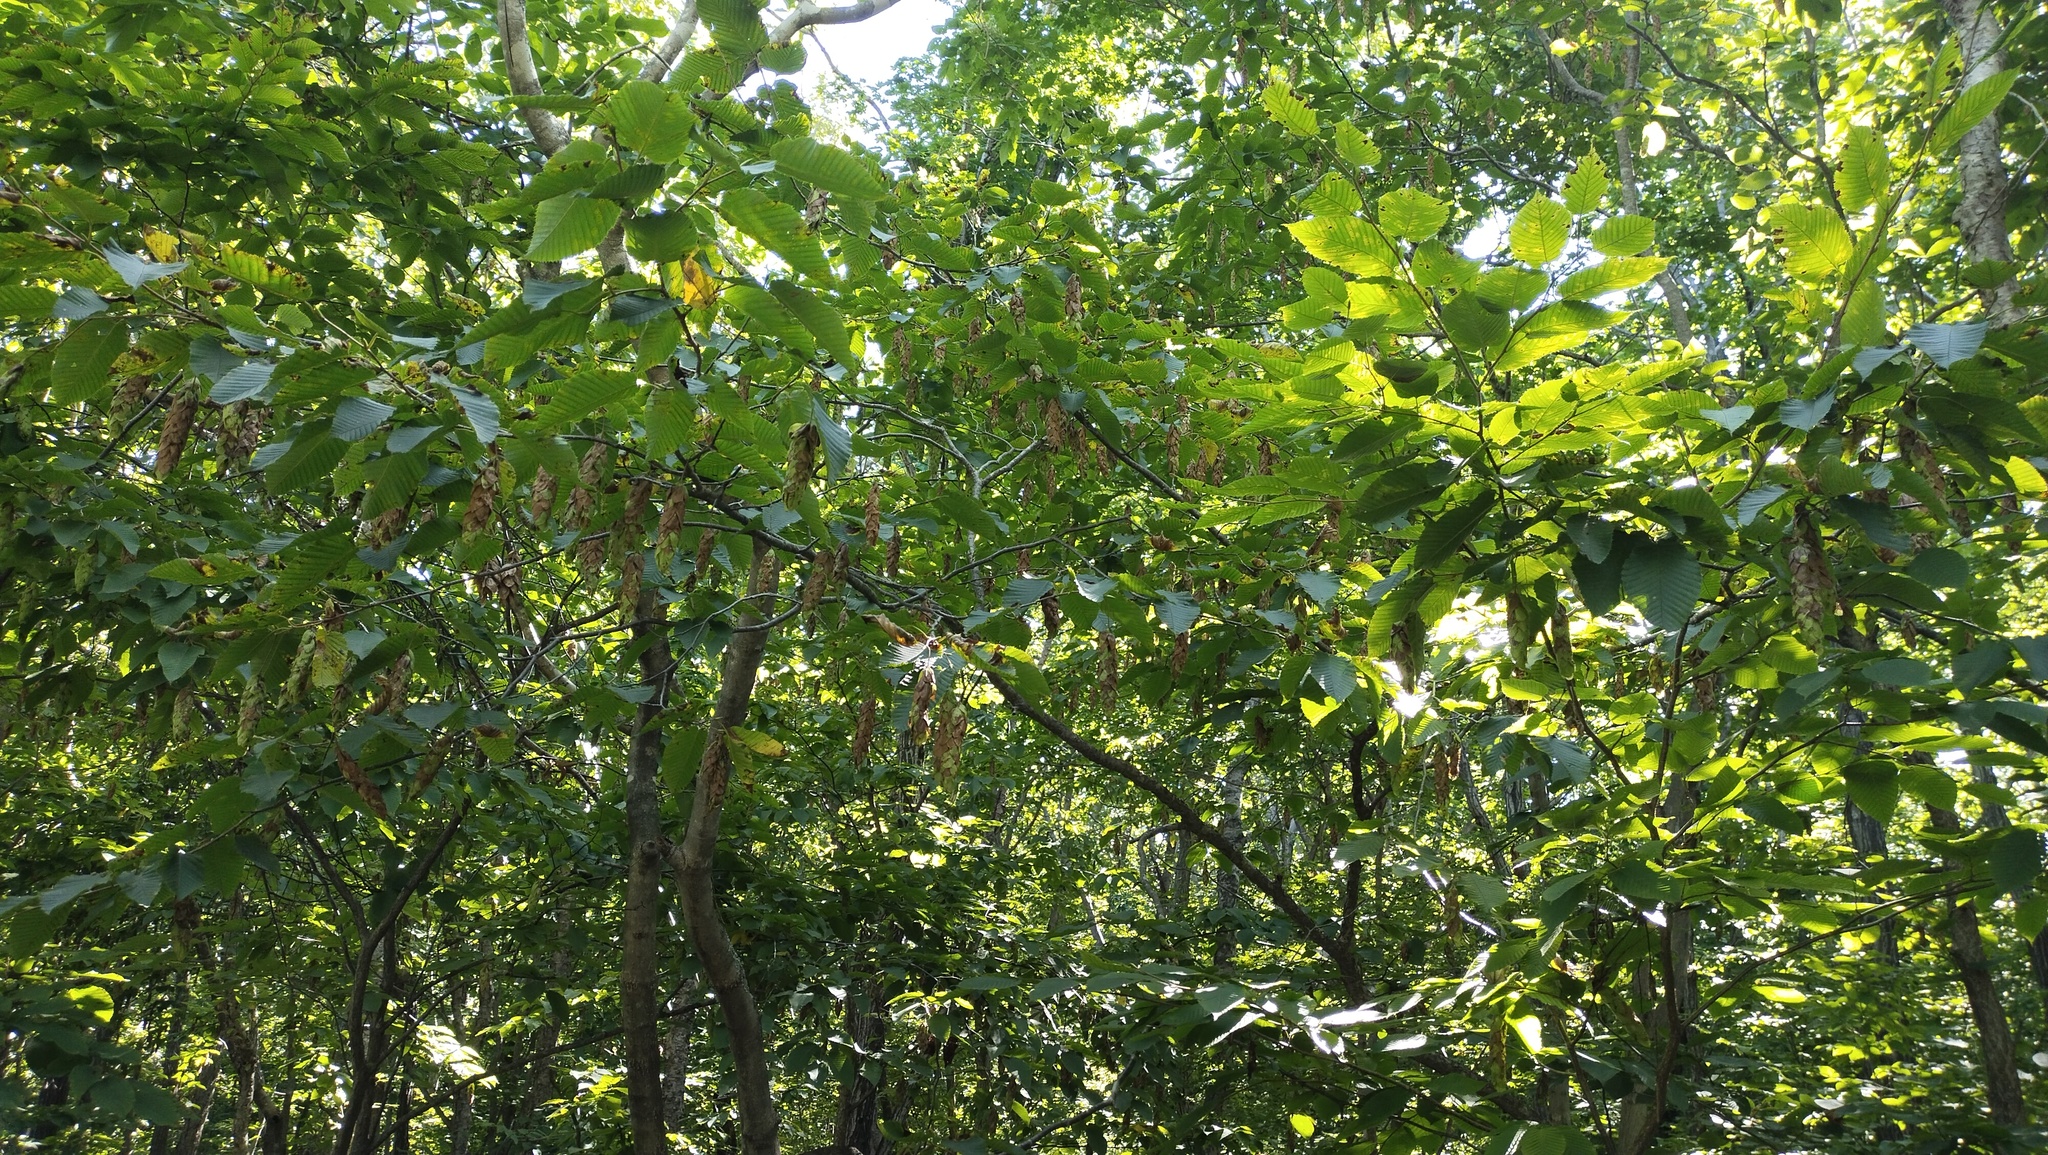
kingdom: Plantae
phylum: Tracheophyta
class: Magnoliopsida
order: Fagales
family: Betulaceae
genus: Carpinus
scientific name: Carpinus cordata
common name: Sawa hornbeam
